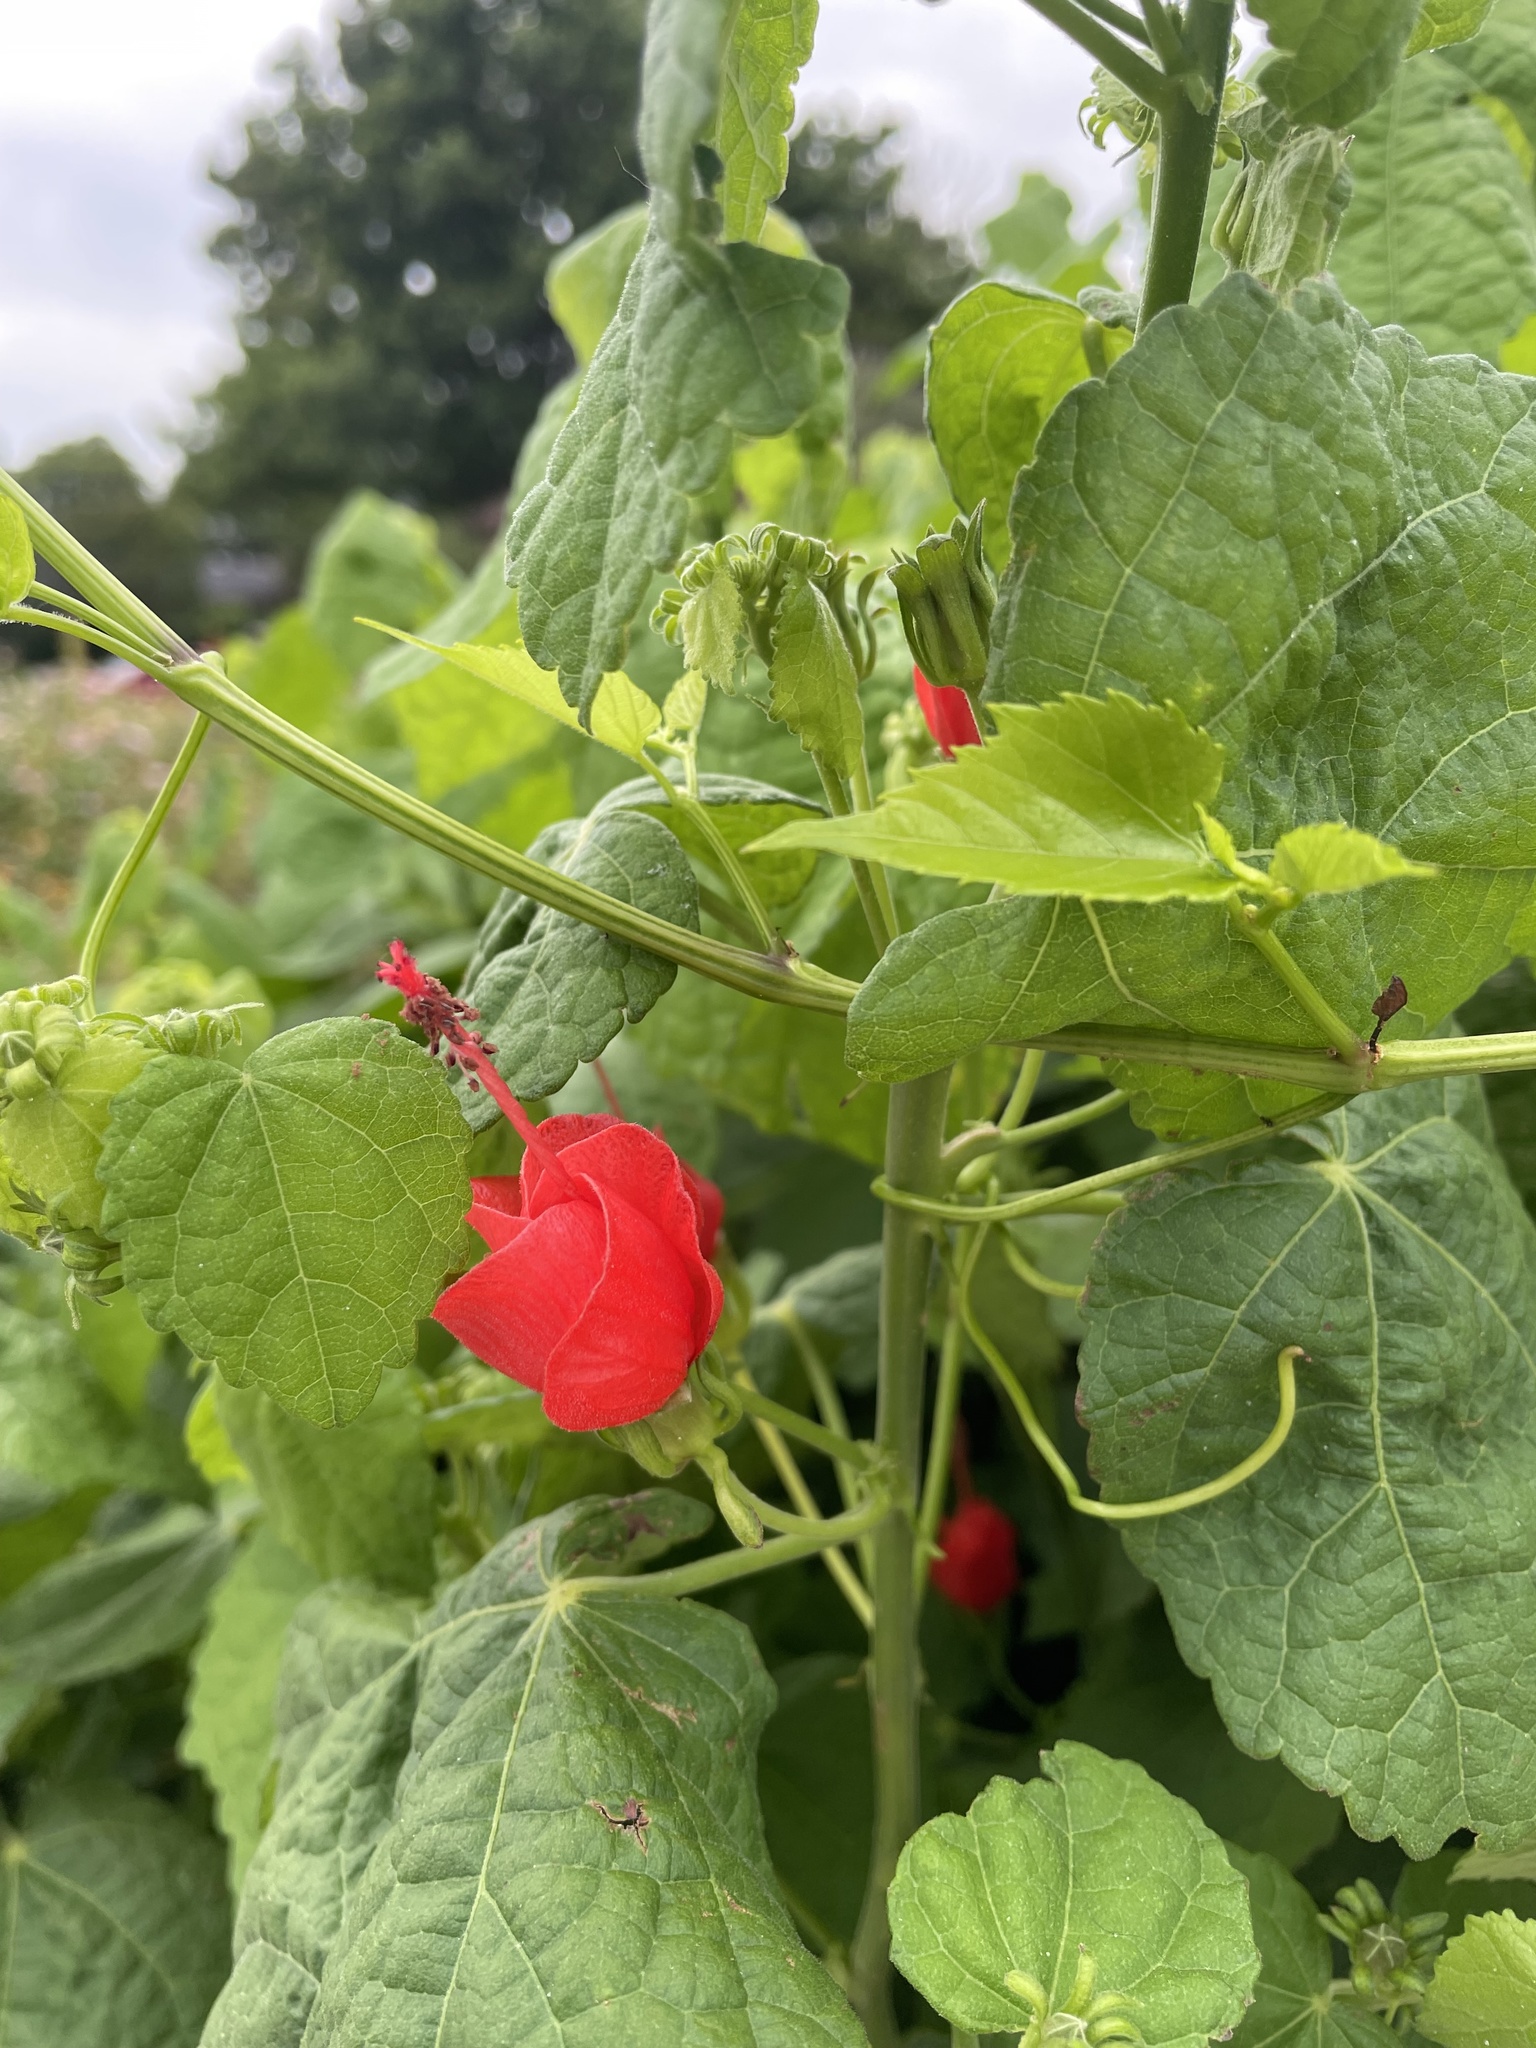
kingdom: Plantae
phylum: Tracheophyta
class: Magnoliopsida
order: Malvales
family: Malvaceae
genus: Malvaviscus
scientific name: Malvaviscus arboreus
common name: Wax mallow
